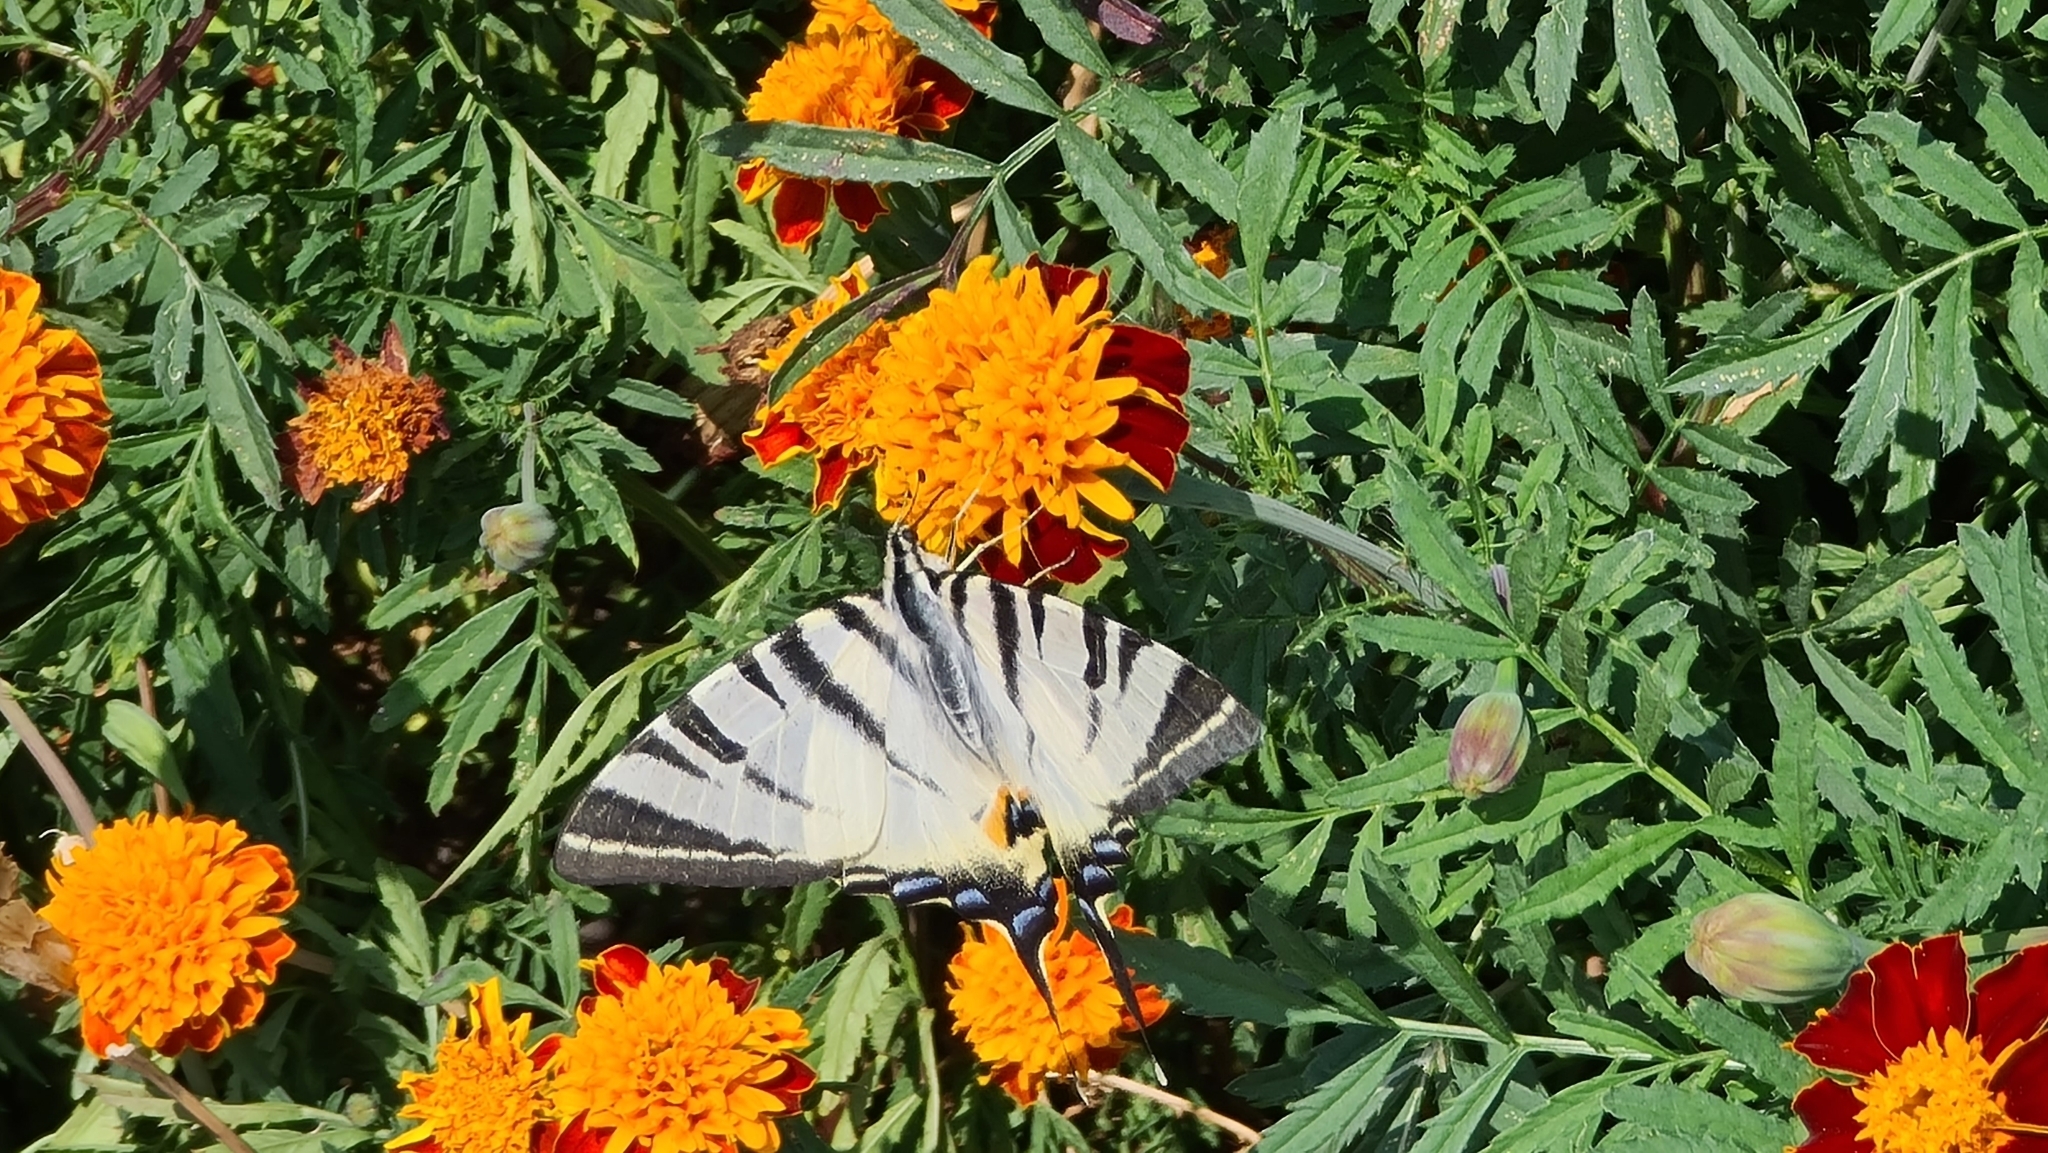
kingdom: Animalia
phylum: Arthropoda
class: Insecta
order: Lepidoptera
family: Papilionidae
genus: Iphiclides
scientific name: Iphiclides podalirius
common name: Scarce swallowtail
